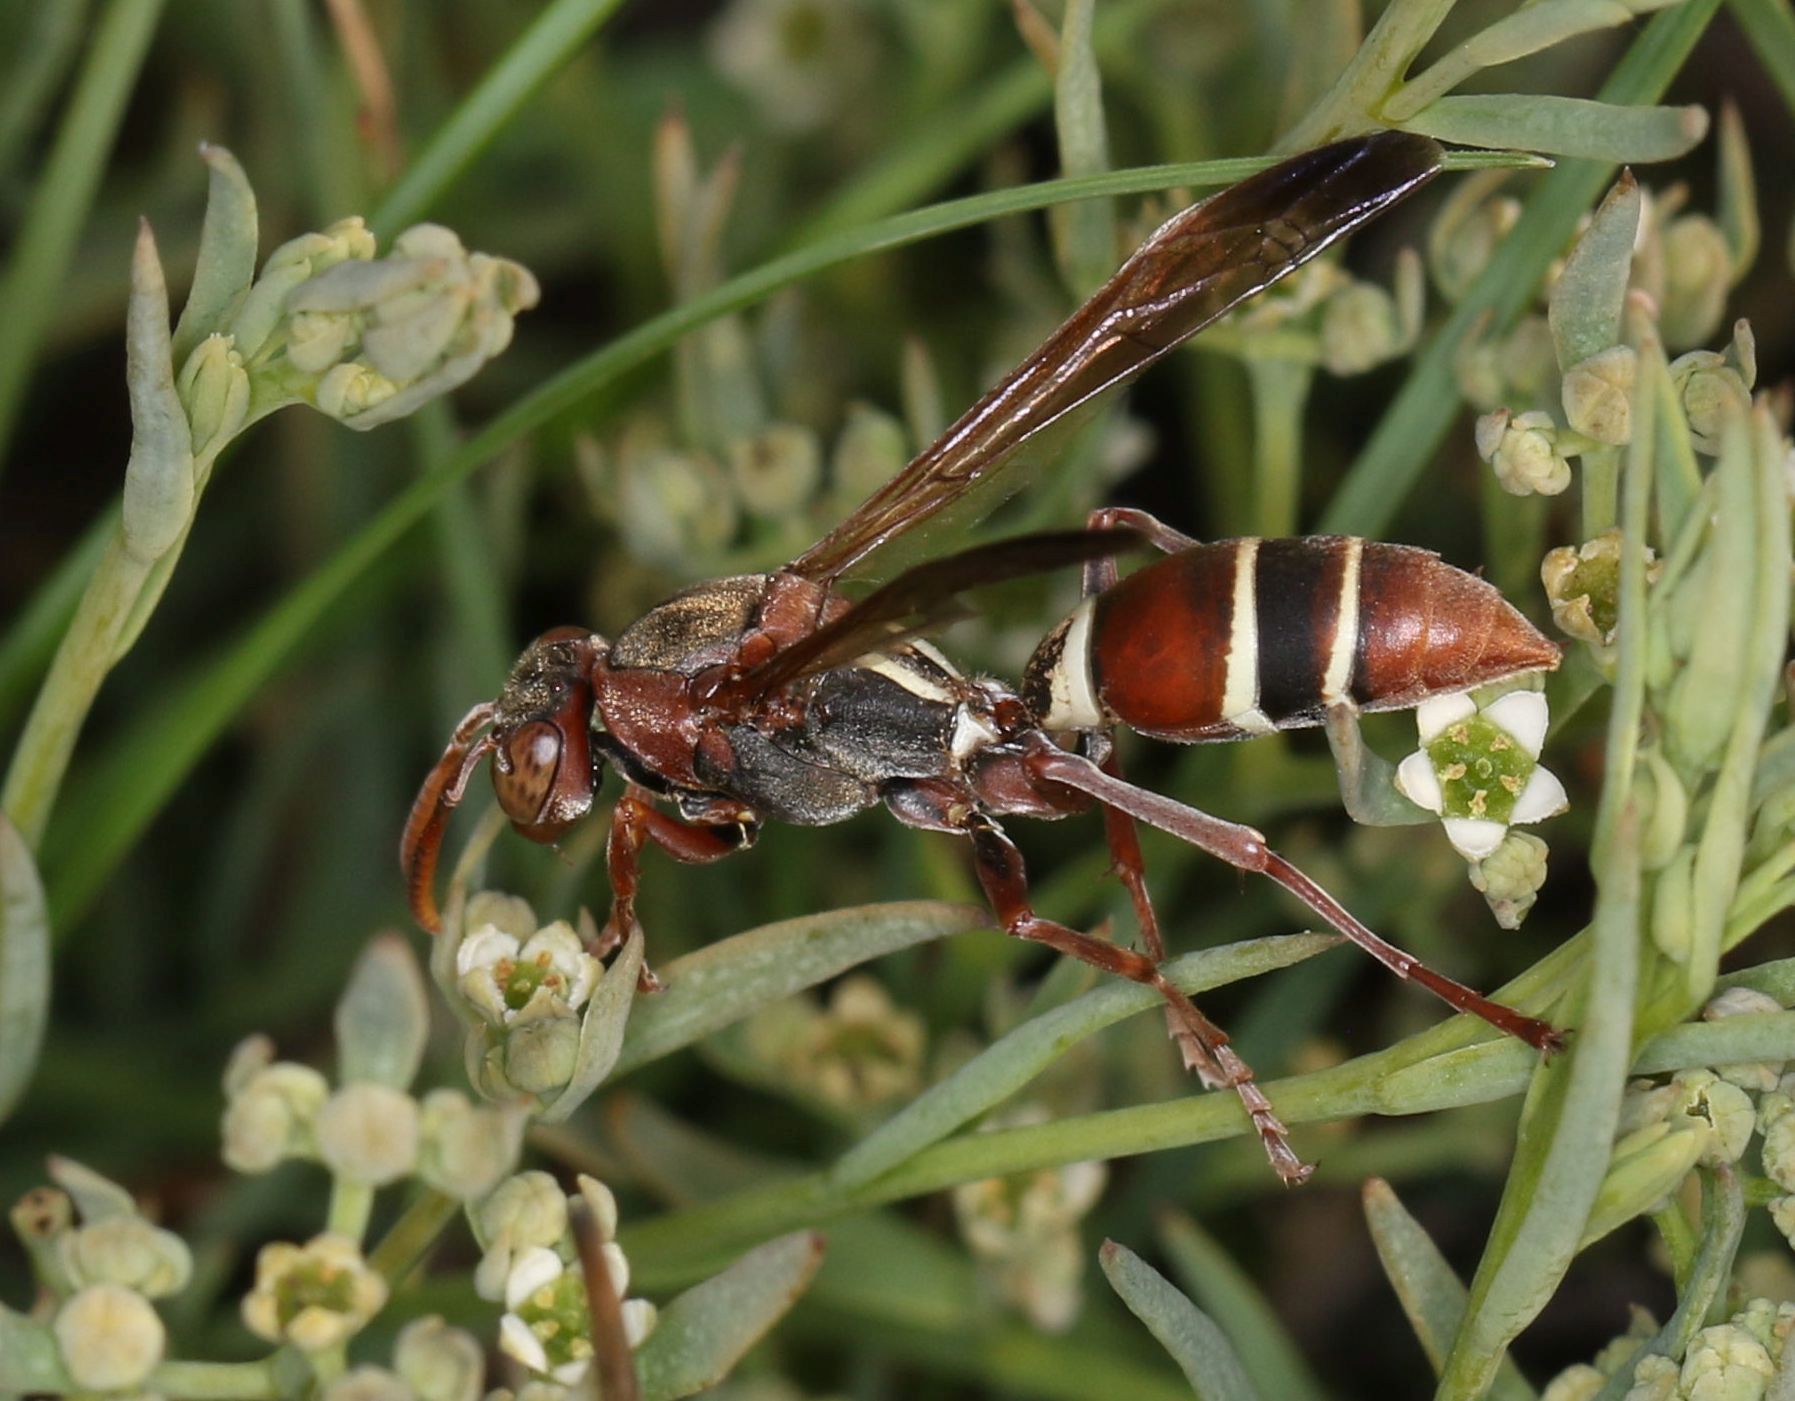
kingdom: Animalia
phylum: Arthropoda
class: Insecta
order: Hymenoptera
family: Eumenidae
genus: Polistes
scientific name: Polistes marginalis
